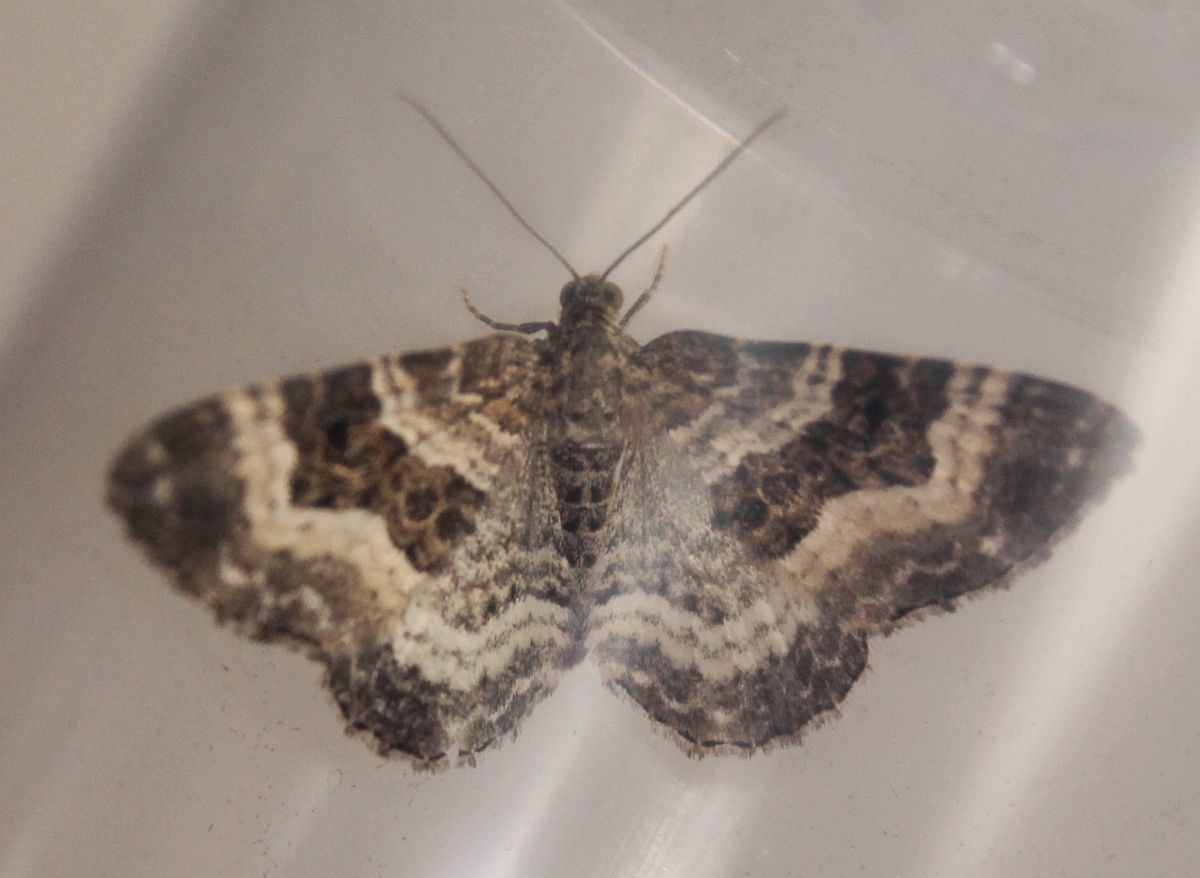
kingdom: Animalia
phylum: Arthropoda
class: Insecta
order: Lepidoptera
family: Geometridae
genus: Epirrhoe
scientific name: Epirrhoe alternata
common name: Common carpet
